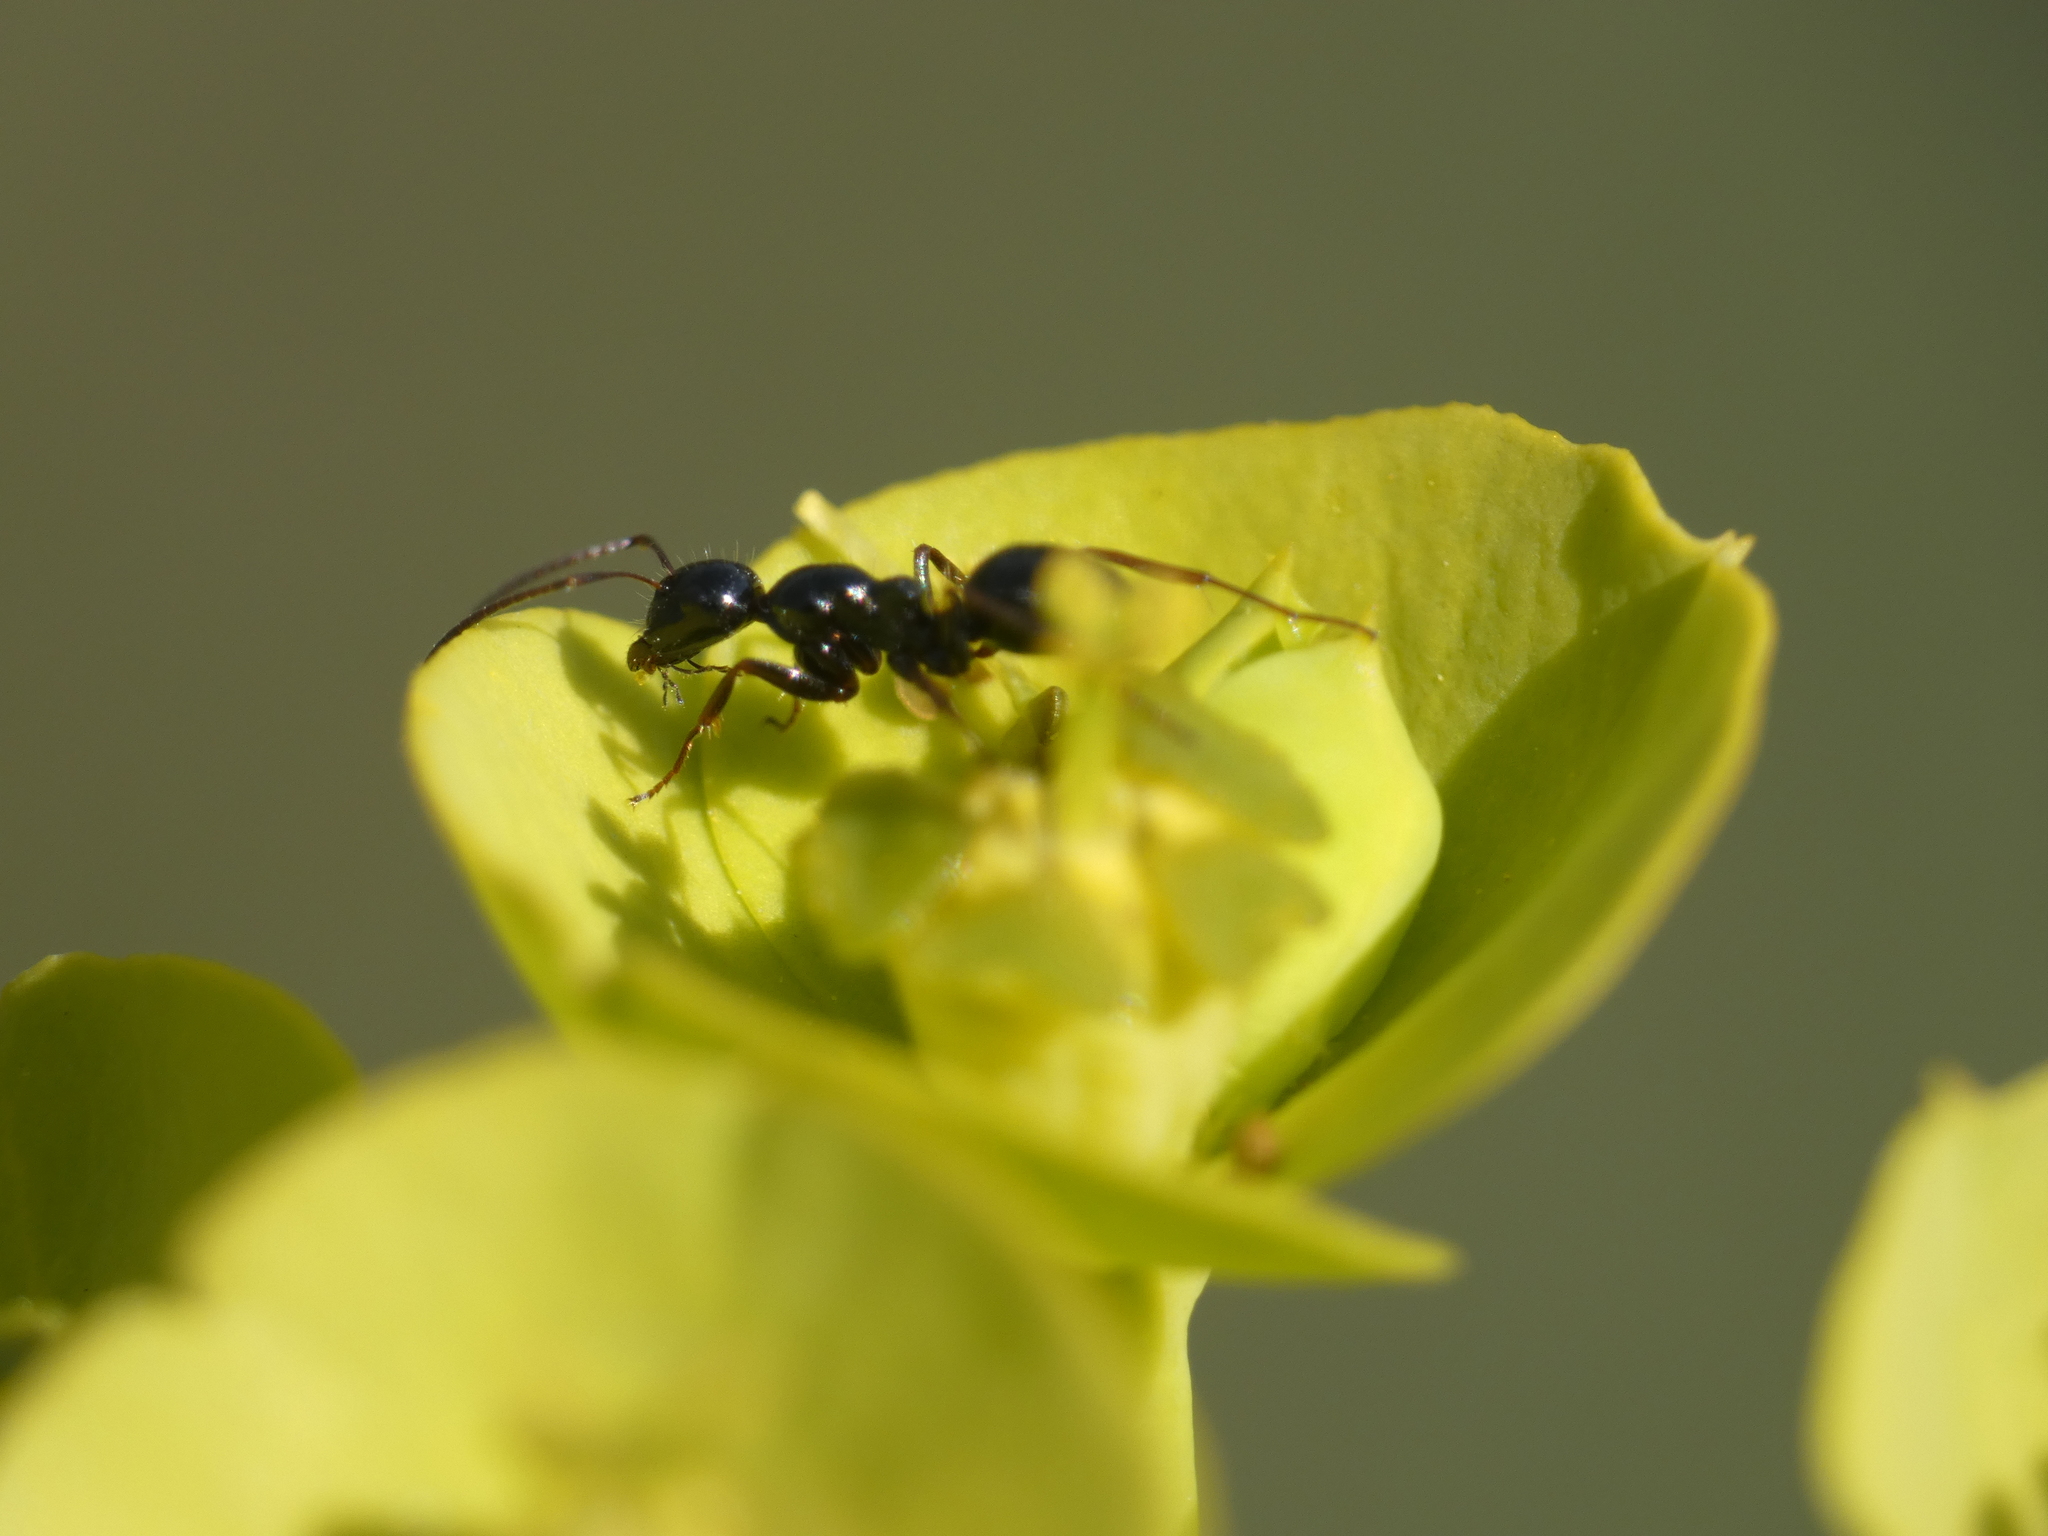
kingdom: Animalia
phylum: Arthropoda
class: Insecta
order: Hymenoptera
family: Formicidae
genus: Camponotus
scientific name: Camponotus aethiops
